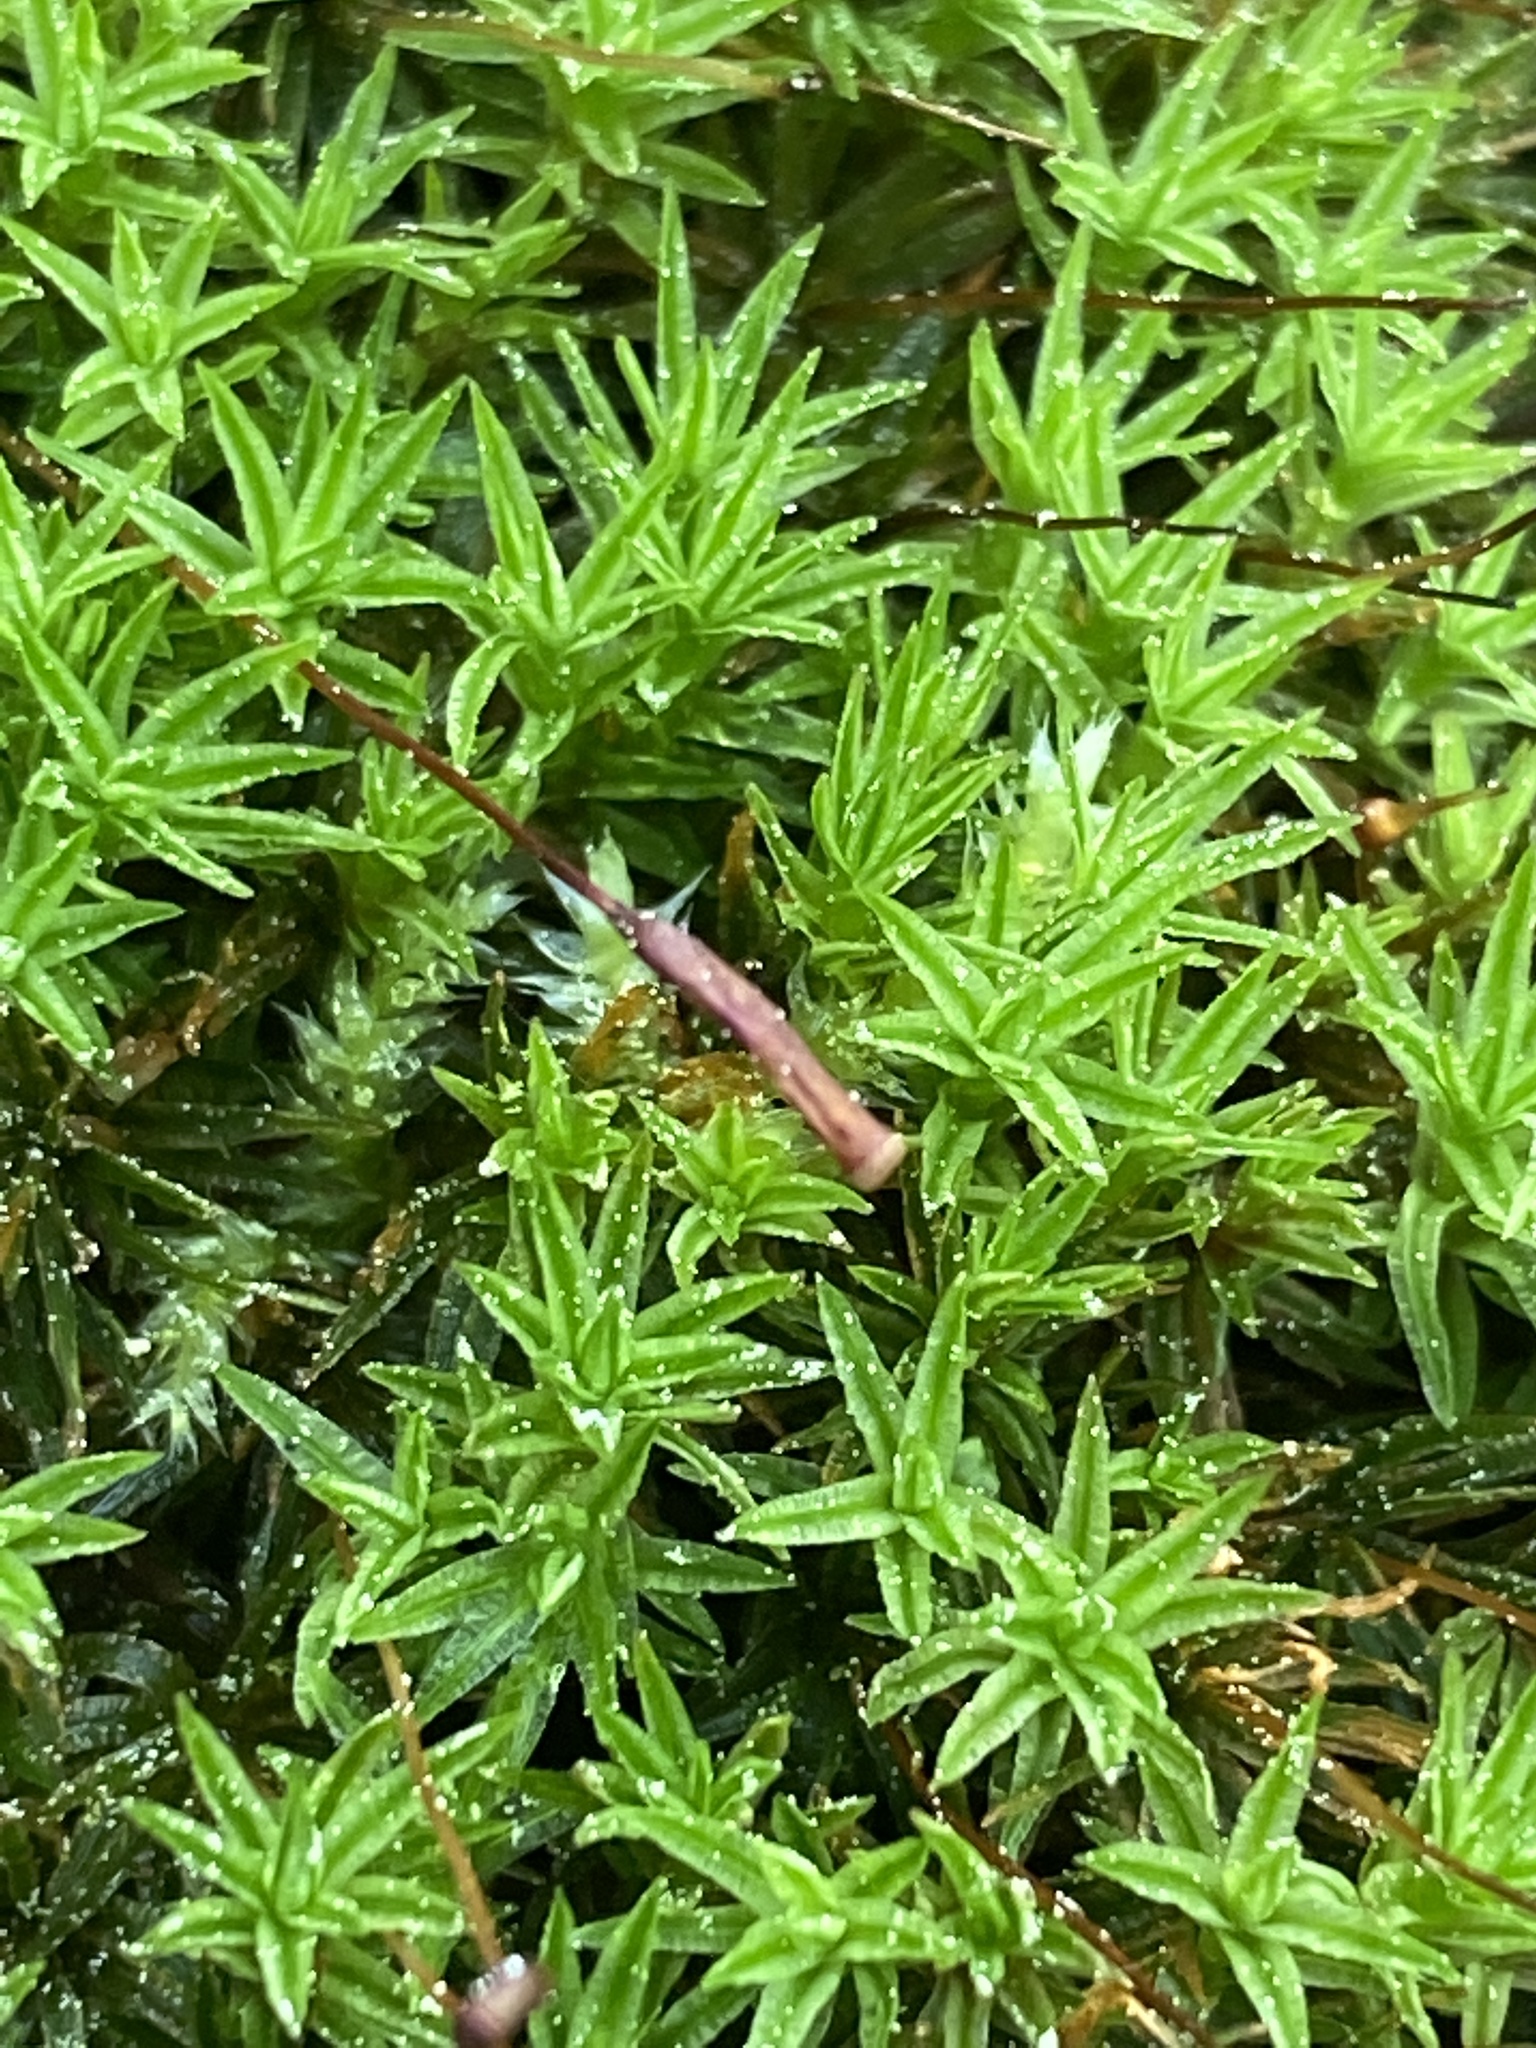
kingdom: Plantae
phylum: Bryophyta
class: Polytrichopsida
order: Polytrichales
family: Polytrichaceae
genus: Atrichum
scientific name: Atrichum angustatum
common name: Lesser smoothcap
